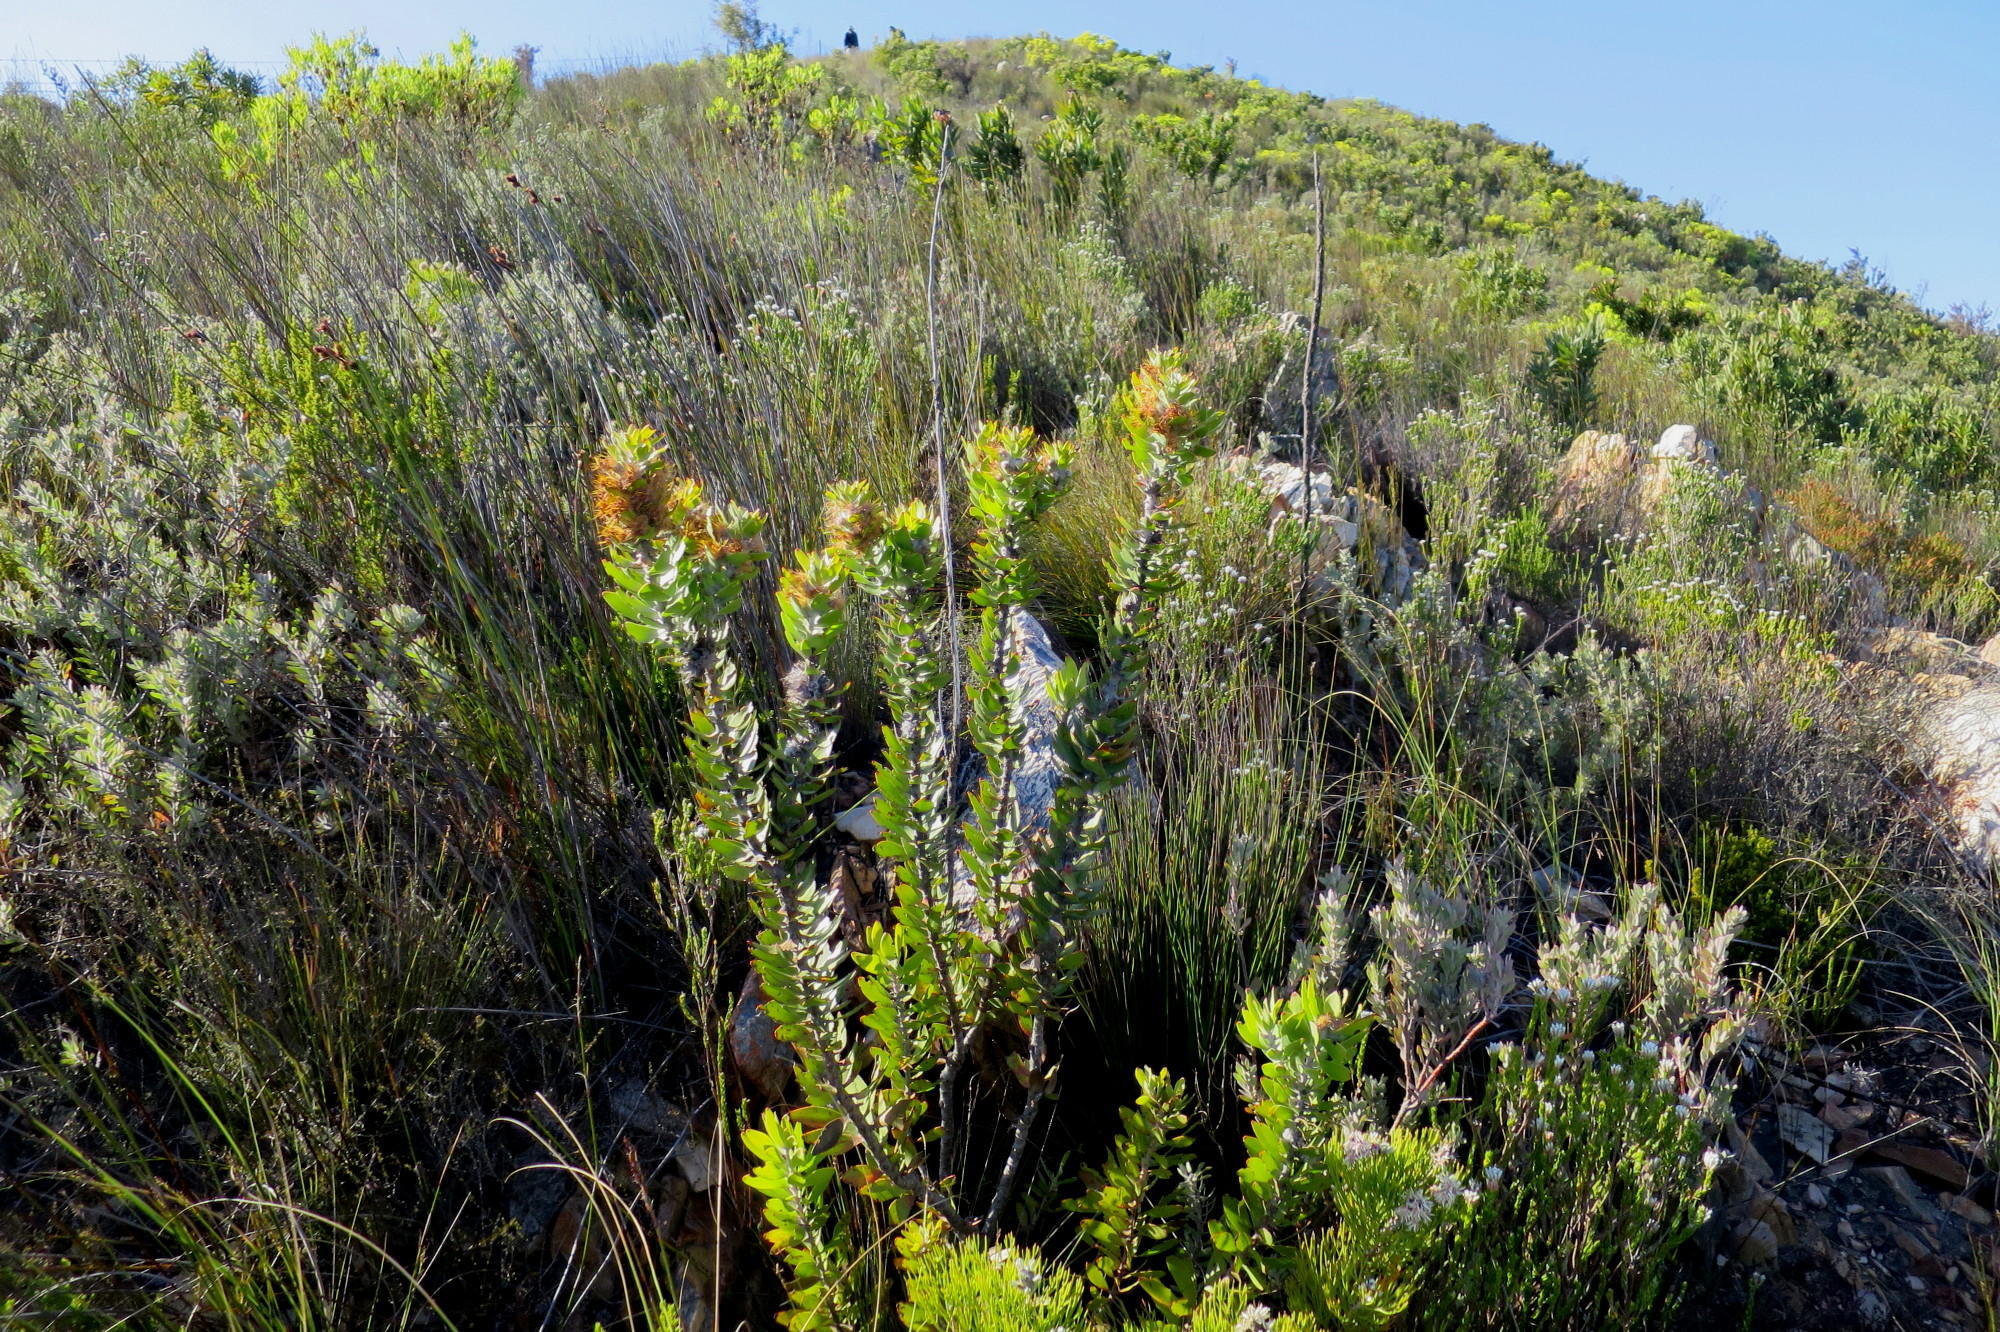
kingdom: Plantae
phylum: Tracheophyta
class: Magnoliopsida
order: Proteales
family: Proteaceae
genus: Mimetes
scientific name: Mimetes chrysanthus
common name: Golden pagoda
